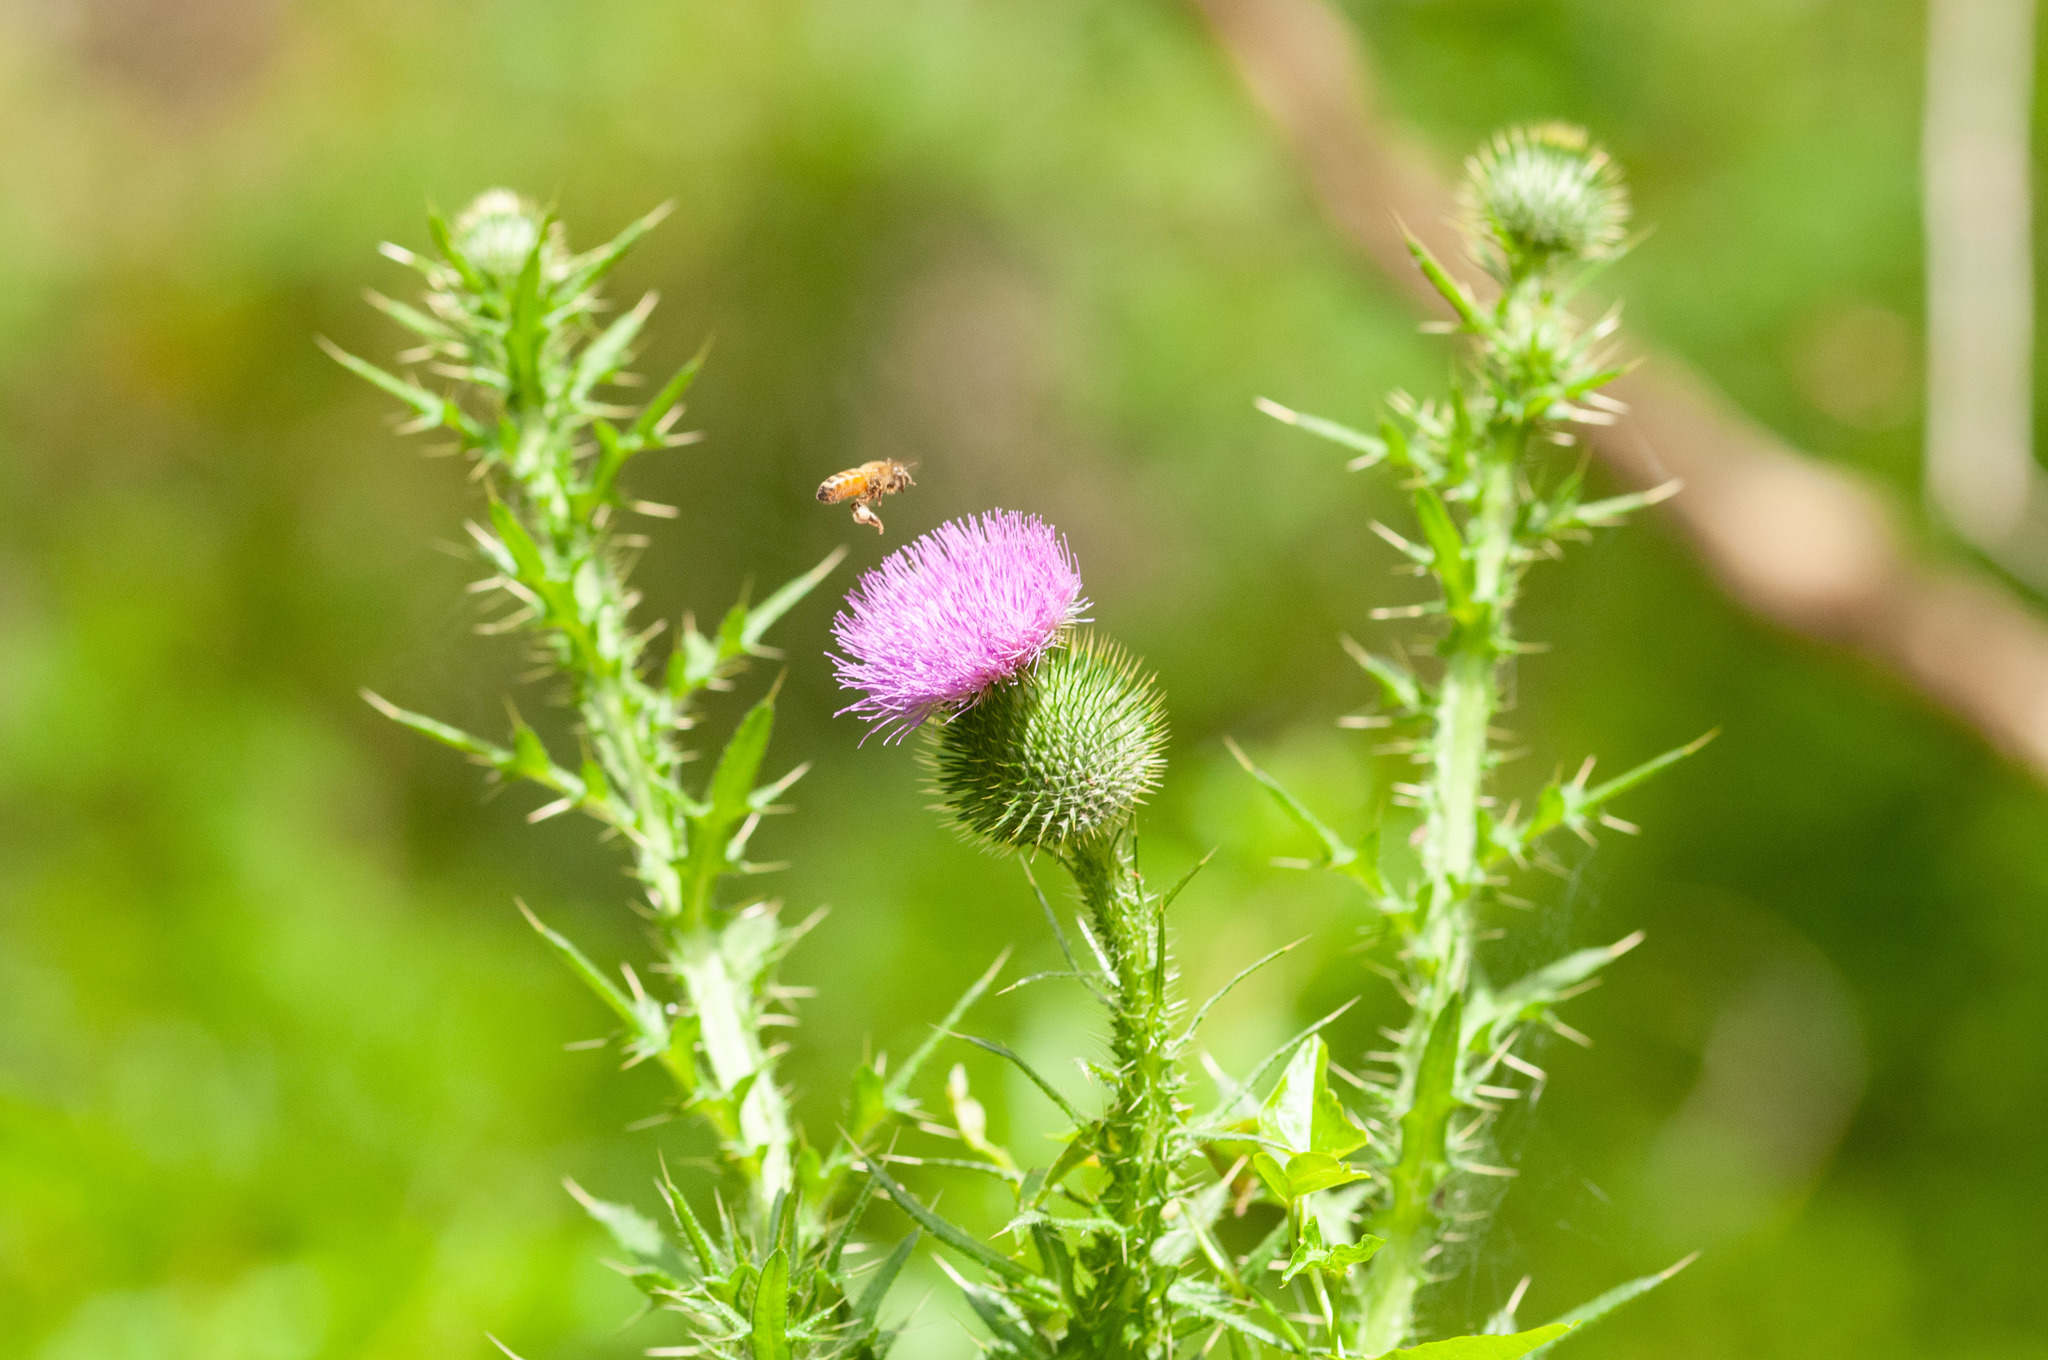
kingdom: Plantae
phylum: Tracheophyta
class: Magnoliopsida
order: Asterales
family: Asteraceae
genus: Cirsium
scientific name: Cirsium vulgare
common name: Bull thistle
